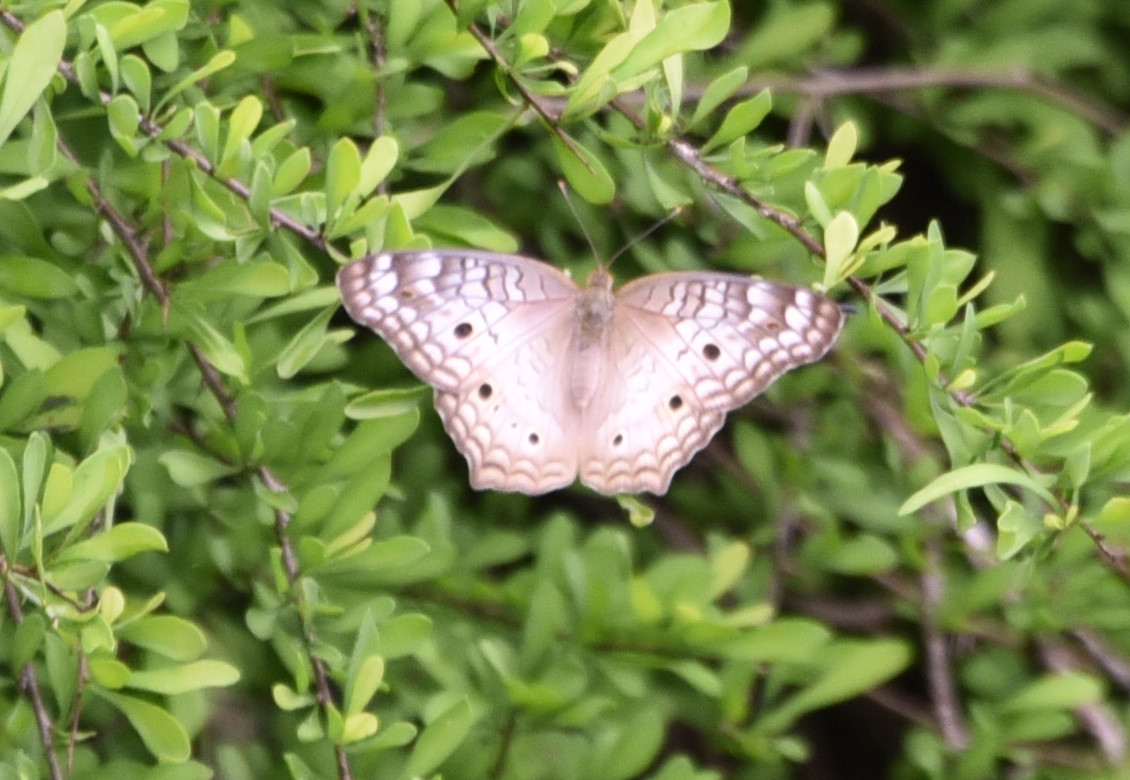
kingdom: Animalia
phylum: Arthropoda
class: Insecta
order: Lepidoptera
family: Nymphalidae
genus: Anartia
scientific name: Anartia jatrophae
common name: White peacock
